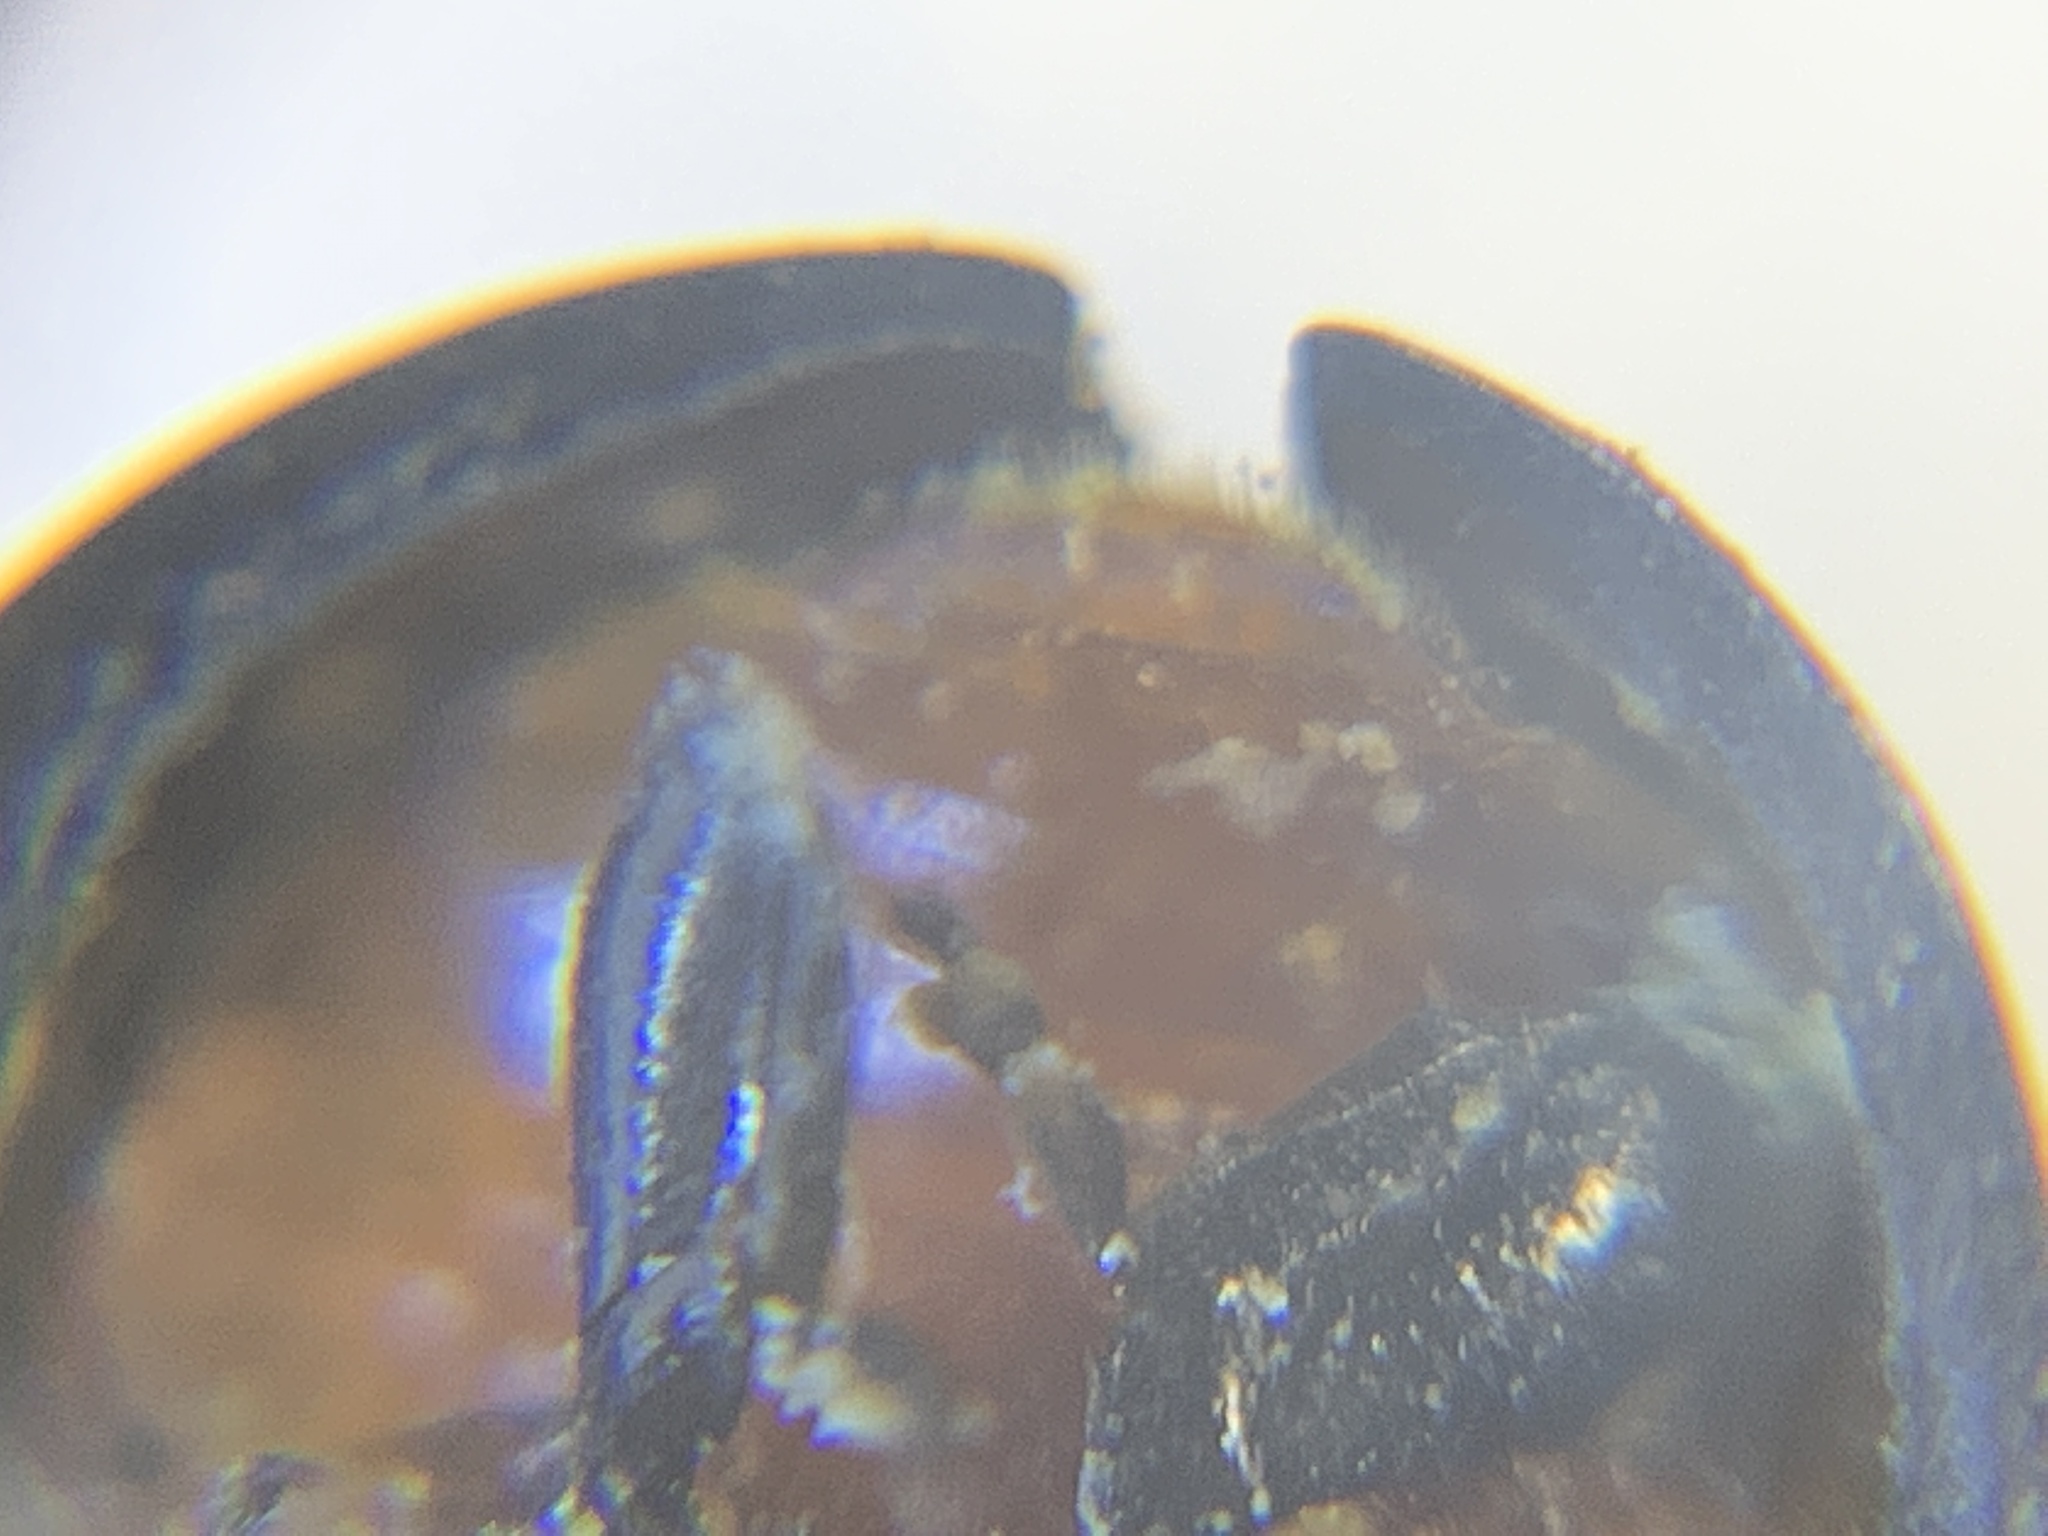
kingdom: Animalia
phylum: Arthropoda
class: Insecta
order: Coleoptera
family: Coccinellidae
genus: Chilocorus
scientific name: Chilocorus cacti
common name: Cactus lady beetle
